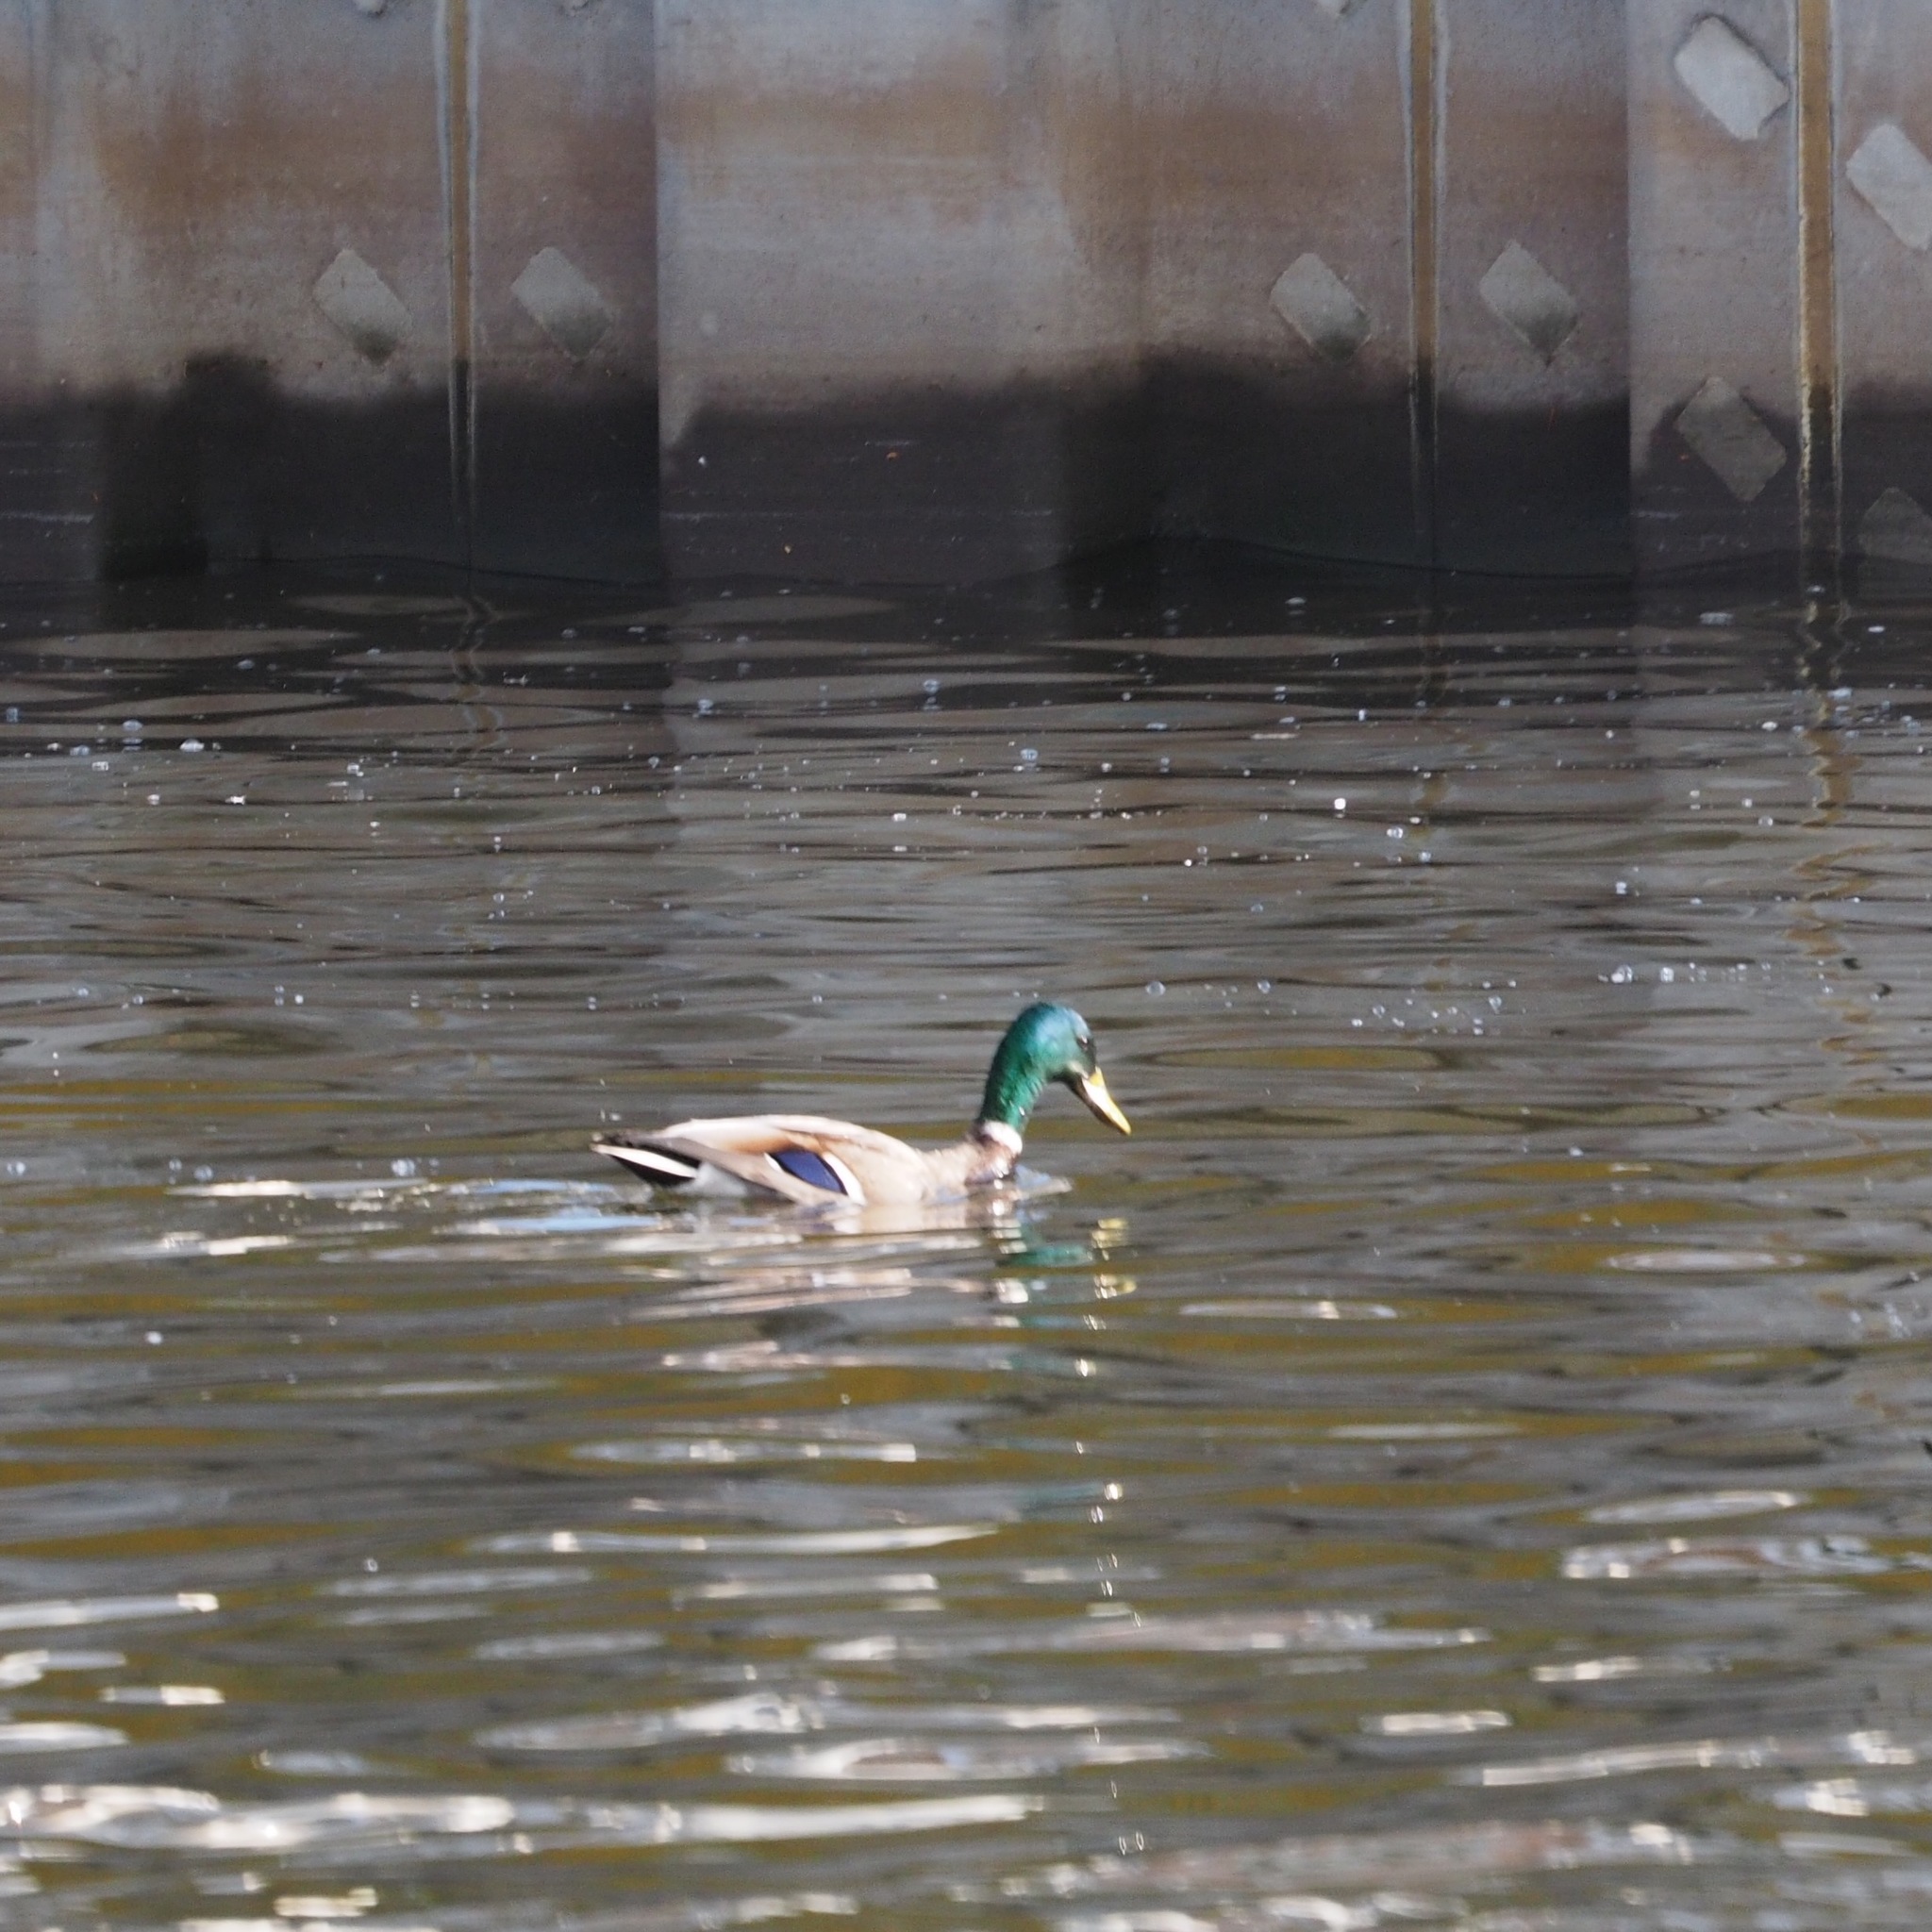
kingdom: Animalia
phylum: Chordata
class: Aves
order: Anseriformes
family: Anatidae
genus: Anas
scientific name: Anas platyrhynchos
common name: Mallard
